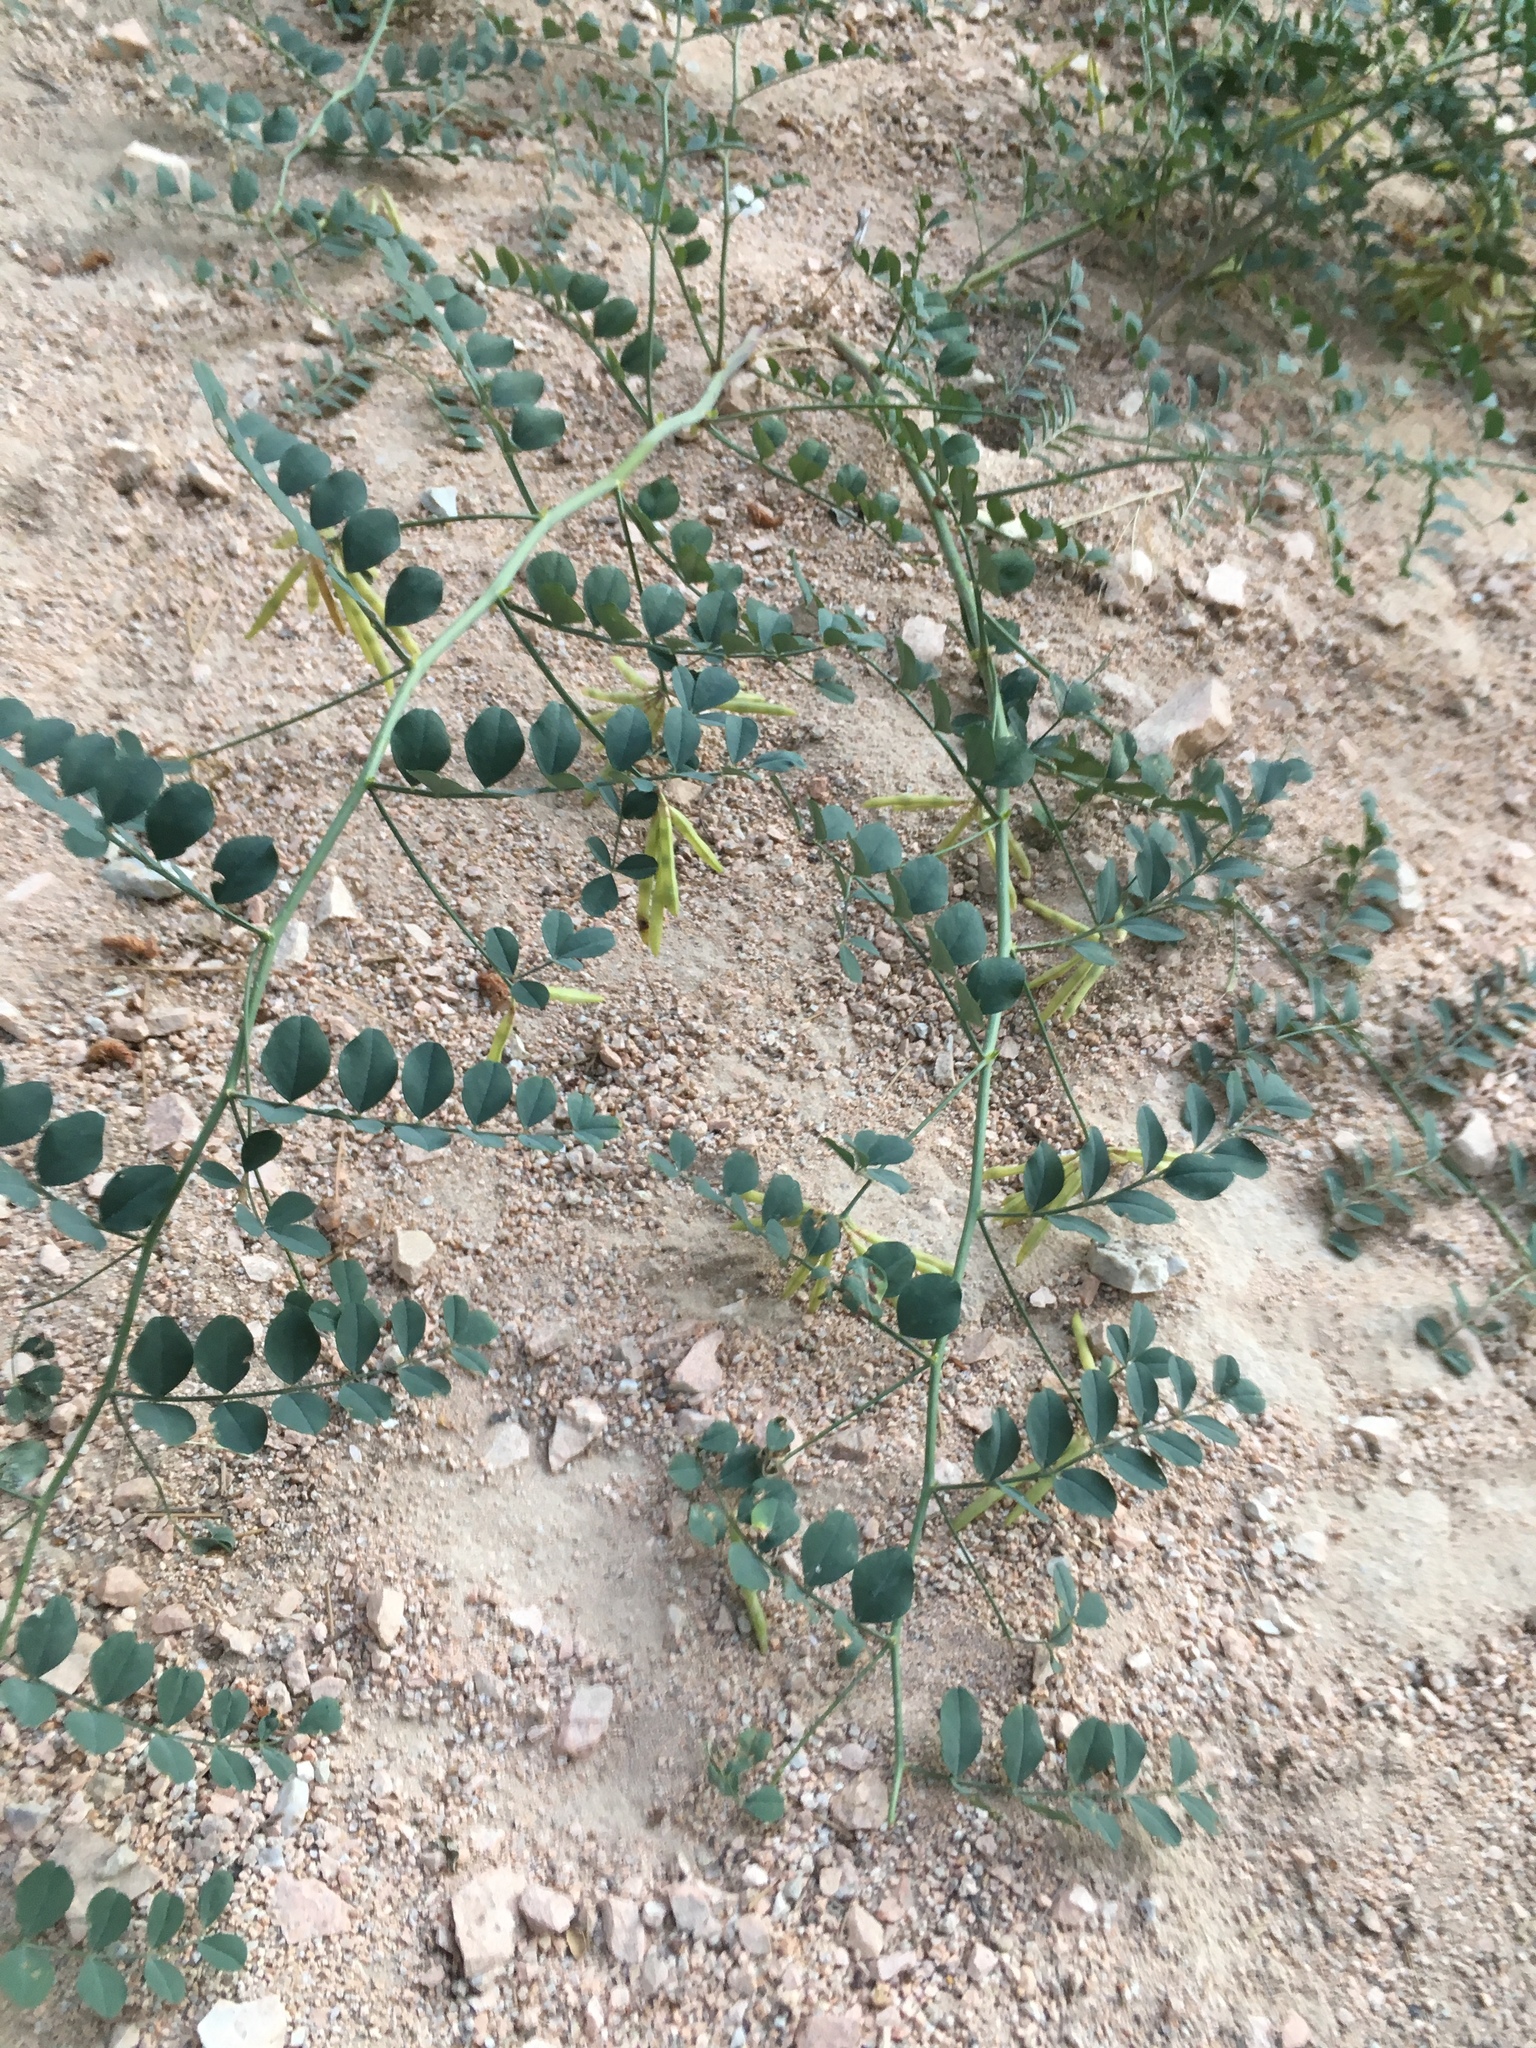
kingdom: Plantae
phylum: Tracheophyta
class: Magnoliopsida
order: Fabales
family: Fabaceae
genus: Hosackia
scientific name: Hosackia crassifolia
